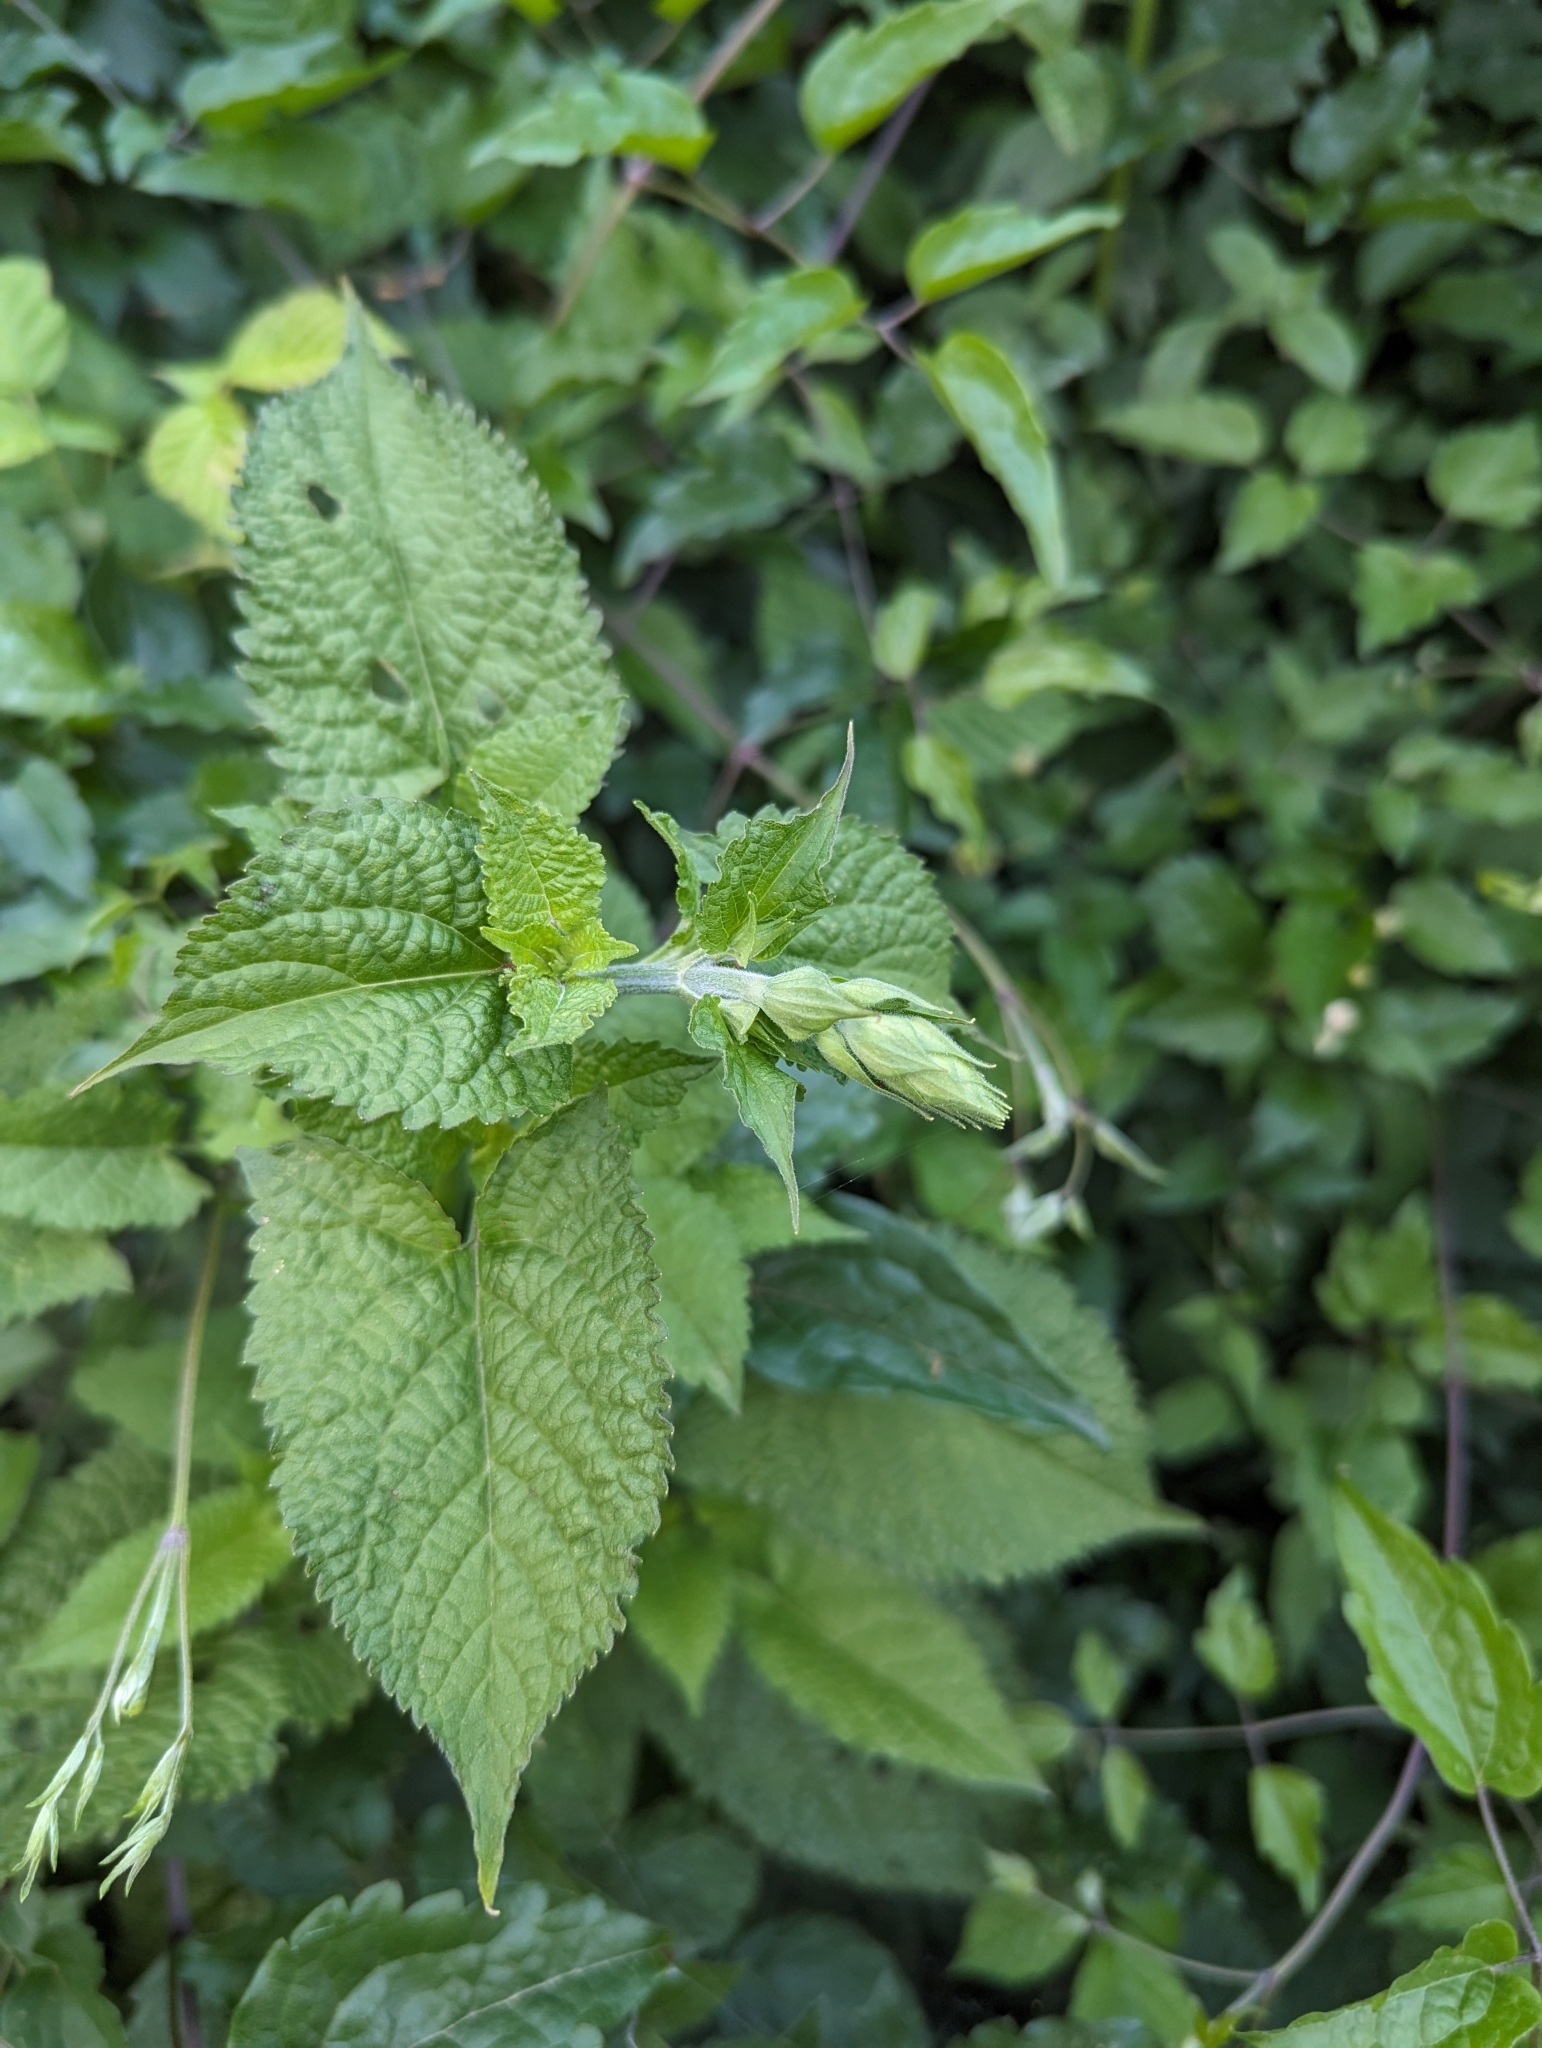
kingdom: Plantae
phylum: Tracheophyta
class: Magnoliopsida
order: Lamiales
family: Lamiaceae
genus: Salvia
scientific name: Salvia glutinosa
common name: Sticky clary
